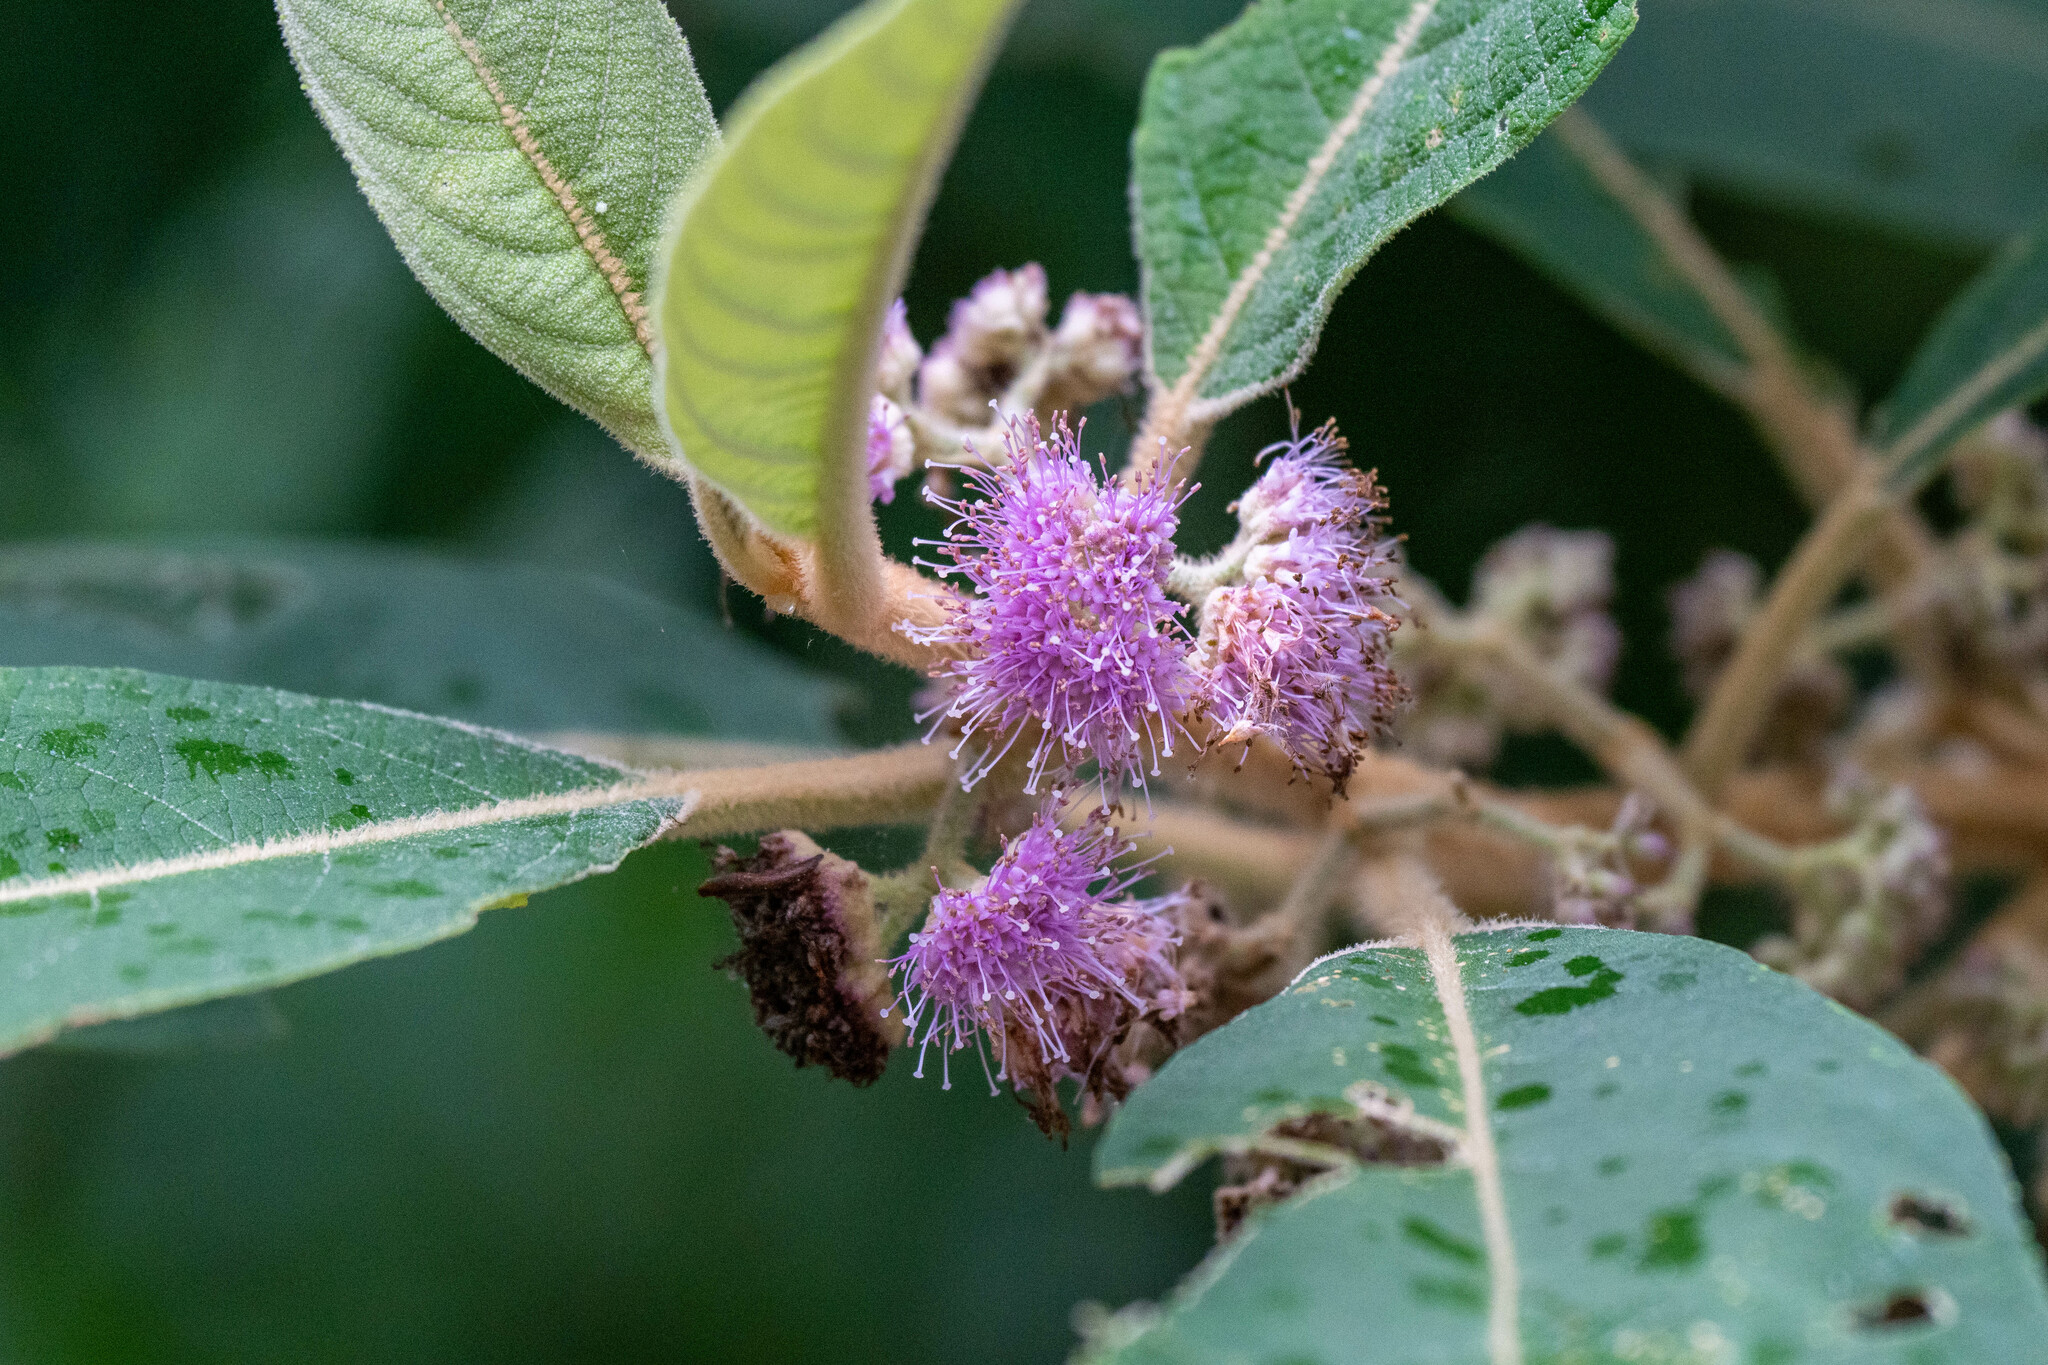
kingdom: Plantae
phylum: Tracheophyta
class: Magnoliopsida
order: Lamiales
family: Lamiaceae
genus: Callicarpa
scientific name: Callicarpa kochiana
